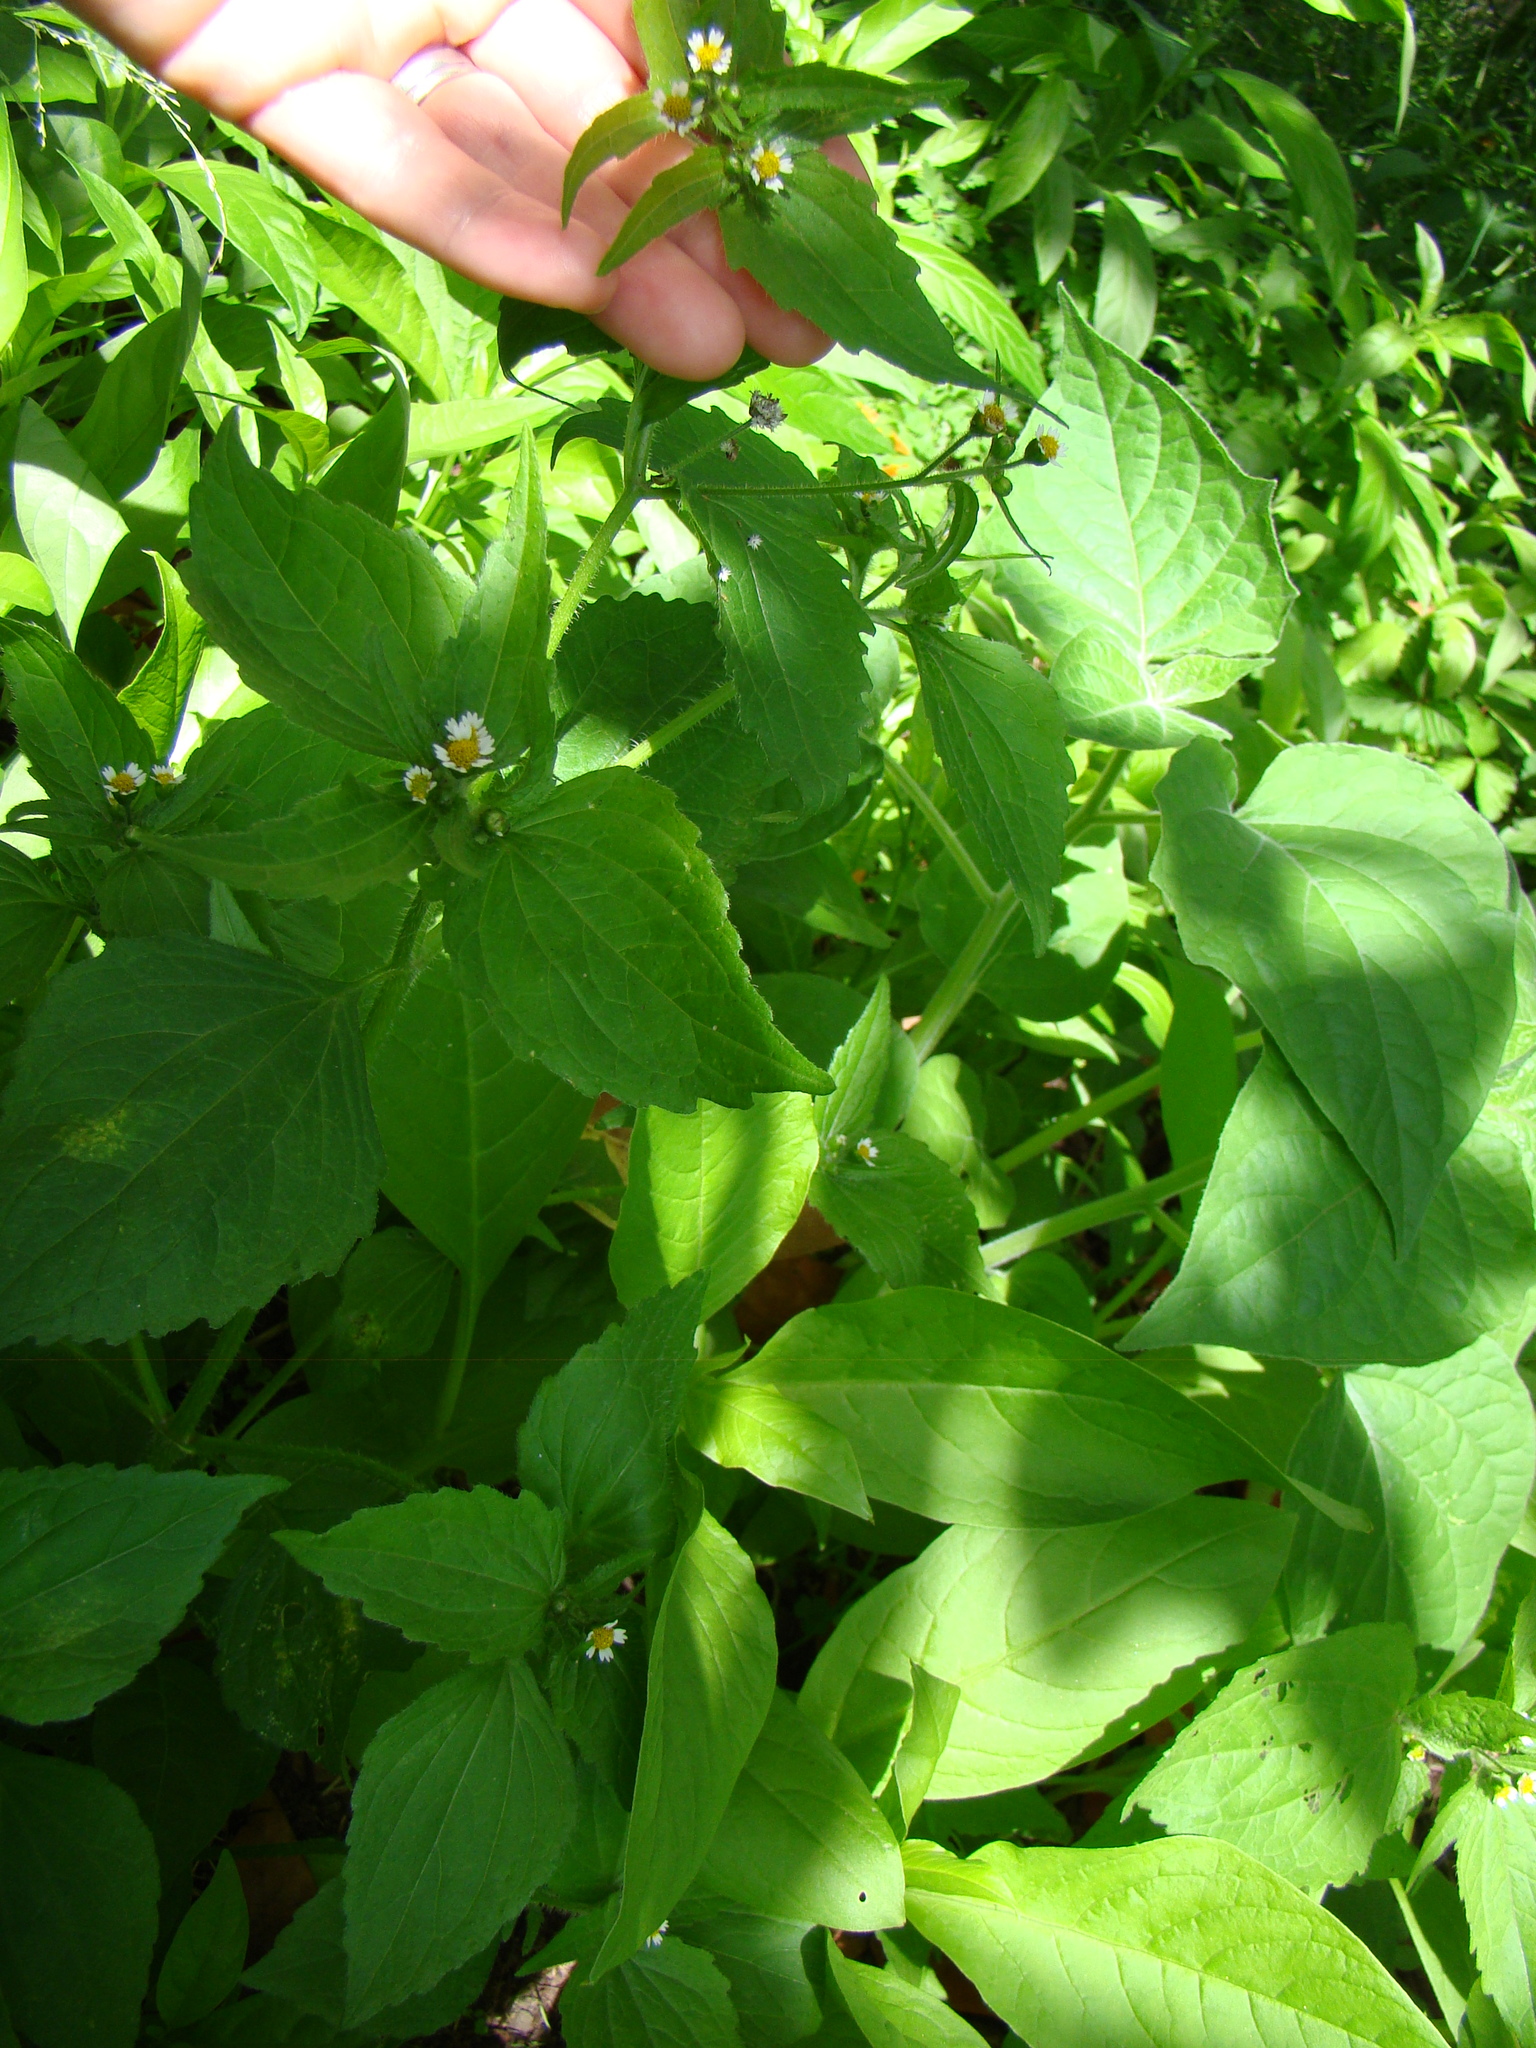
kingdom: Plantae
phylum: Tracheophyta
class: Magnoliopsida
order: Asterales
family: Asteraceae
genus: Galinsoga
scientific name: Galinsoga parviflora
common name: Gallant soldier
